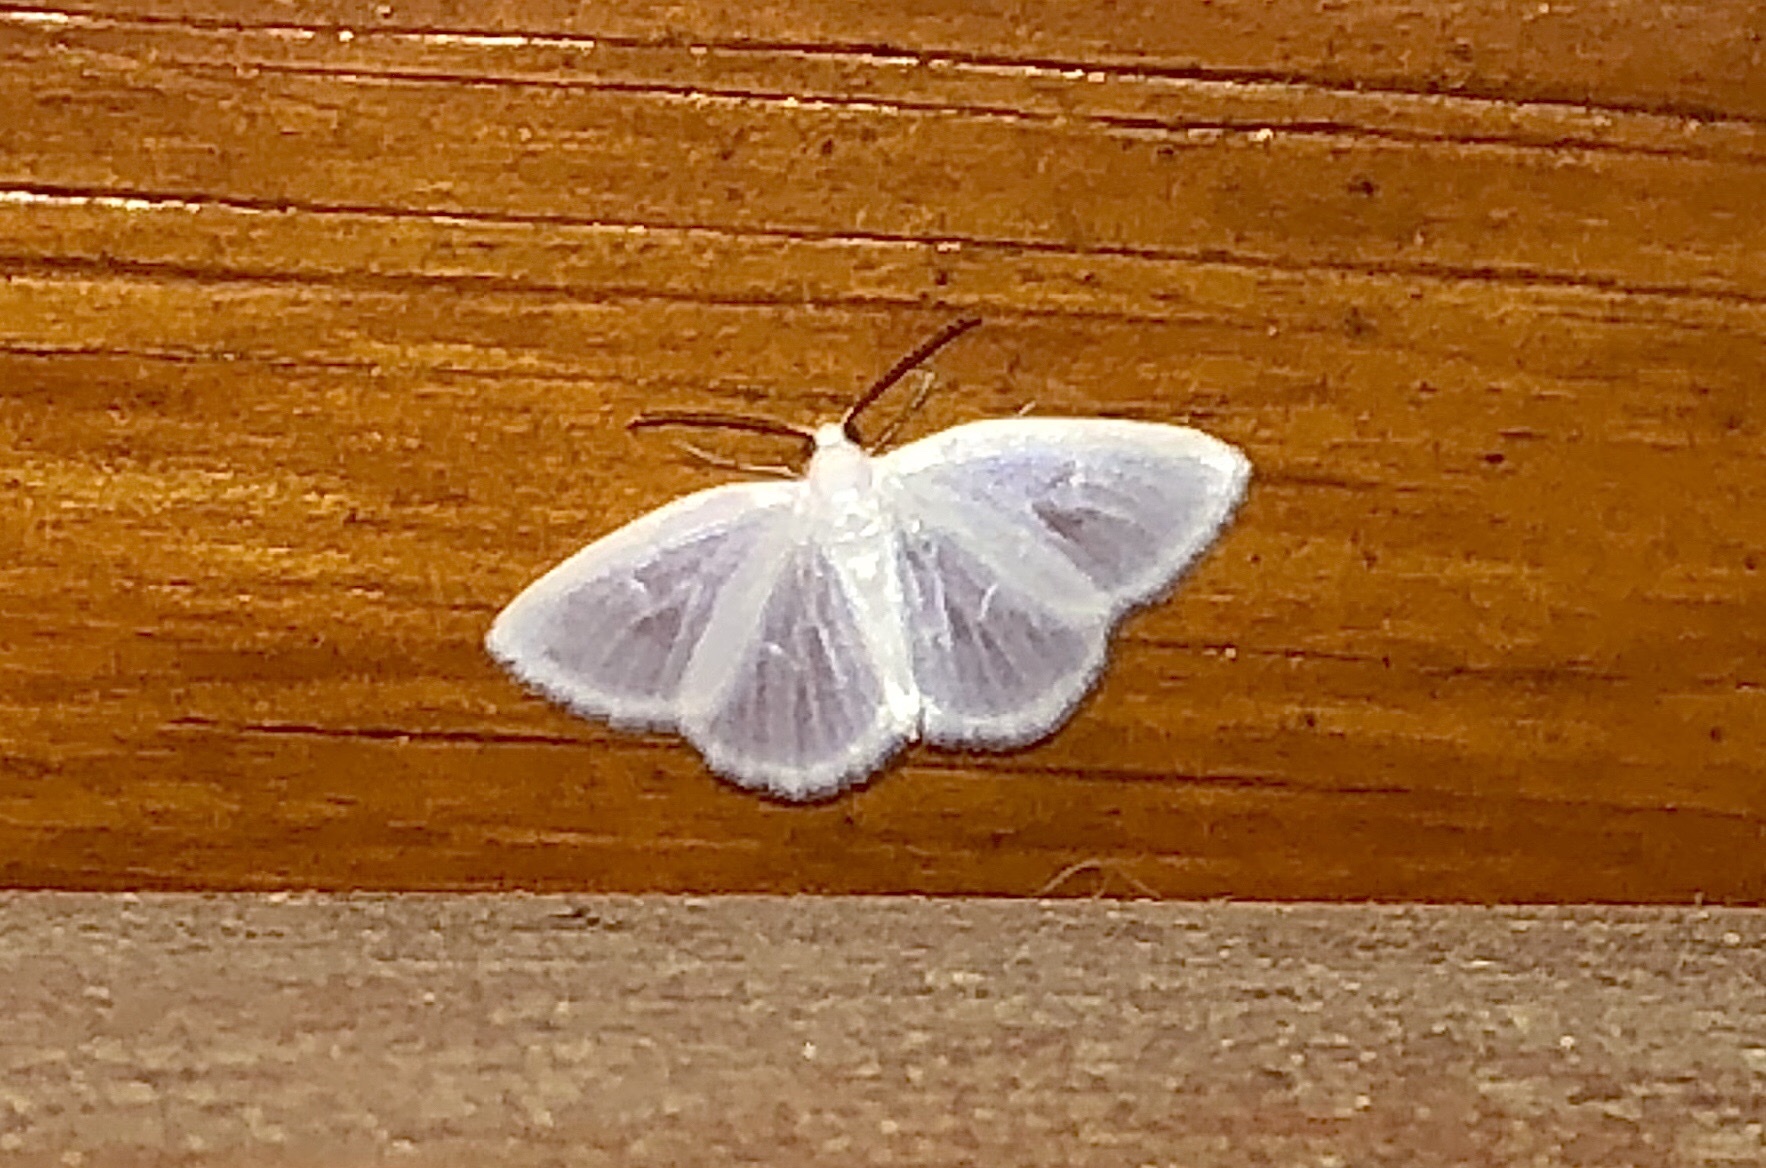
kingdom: Animalia
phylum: Arthropoda
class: Insecta
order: Lepidoptera
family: Geometridae
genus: Lomographa
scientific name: Lomographa vestaliata
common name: White spring moth
